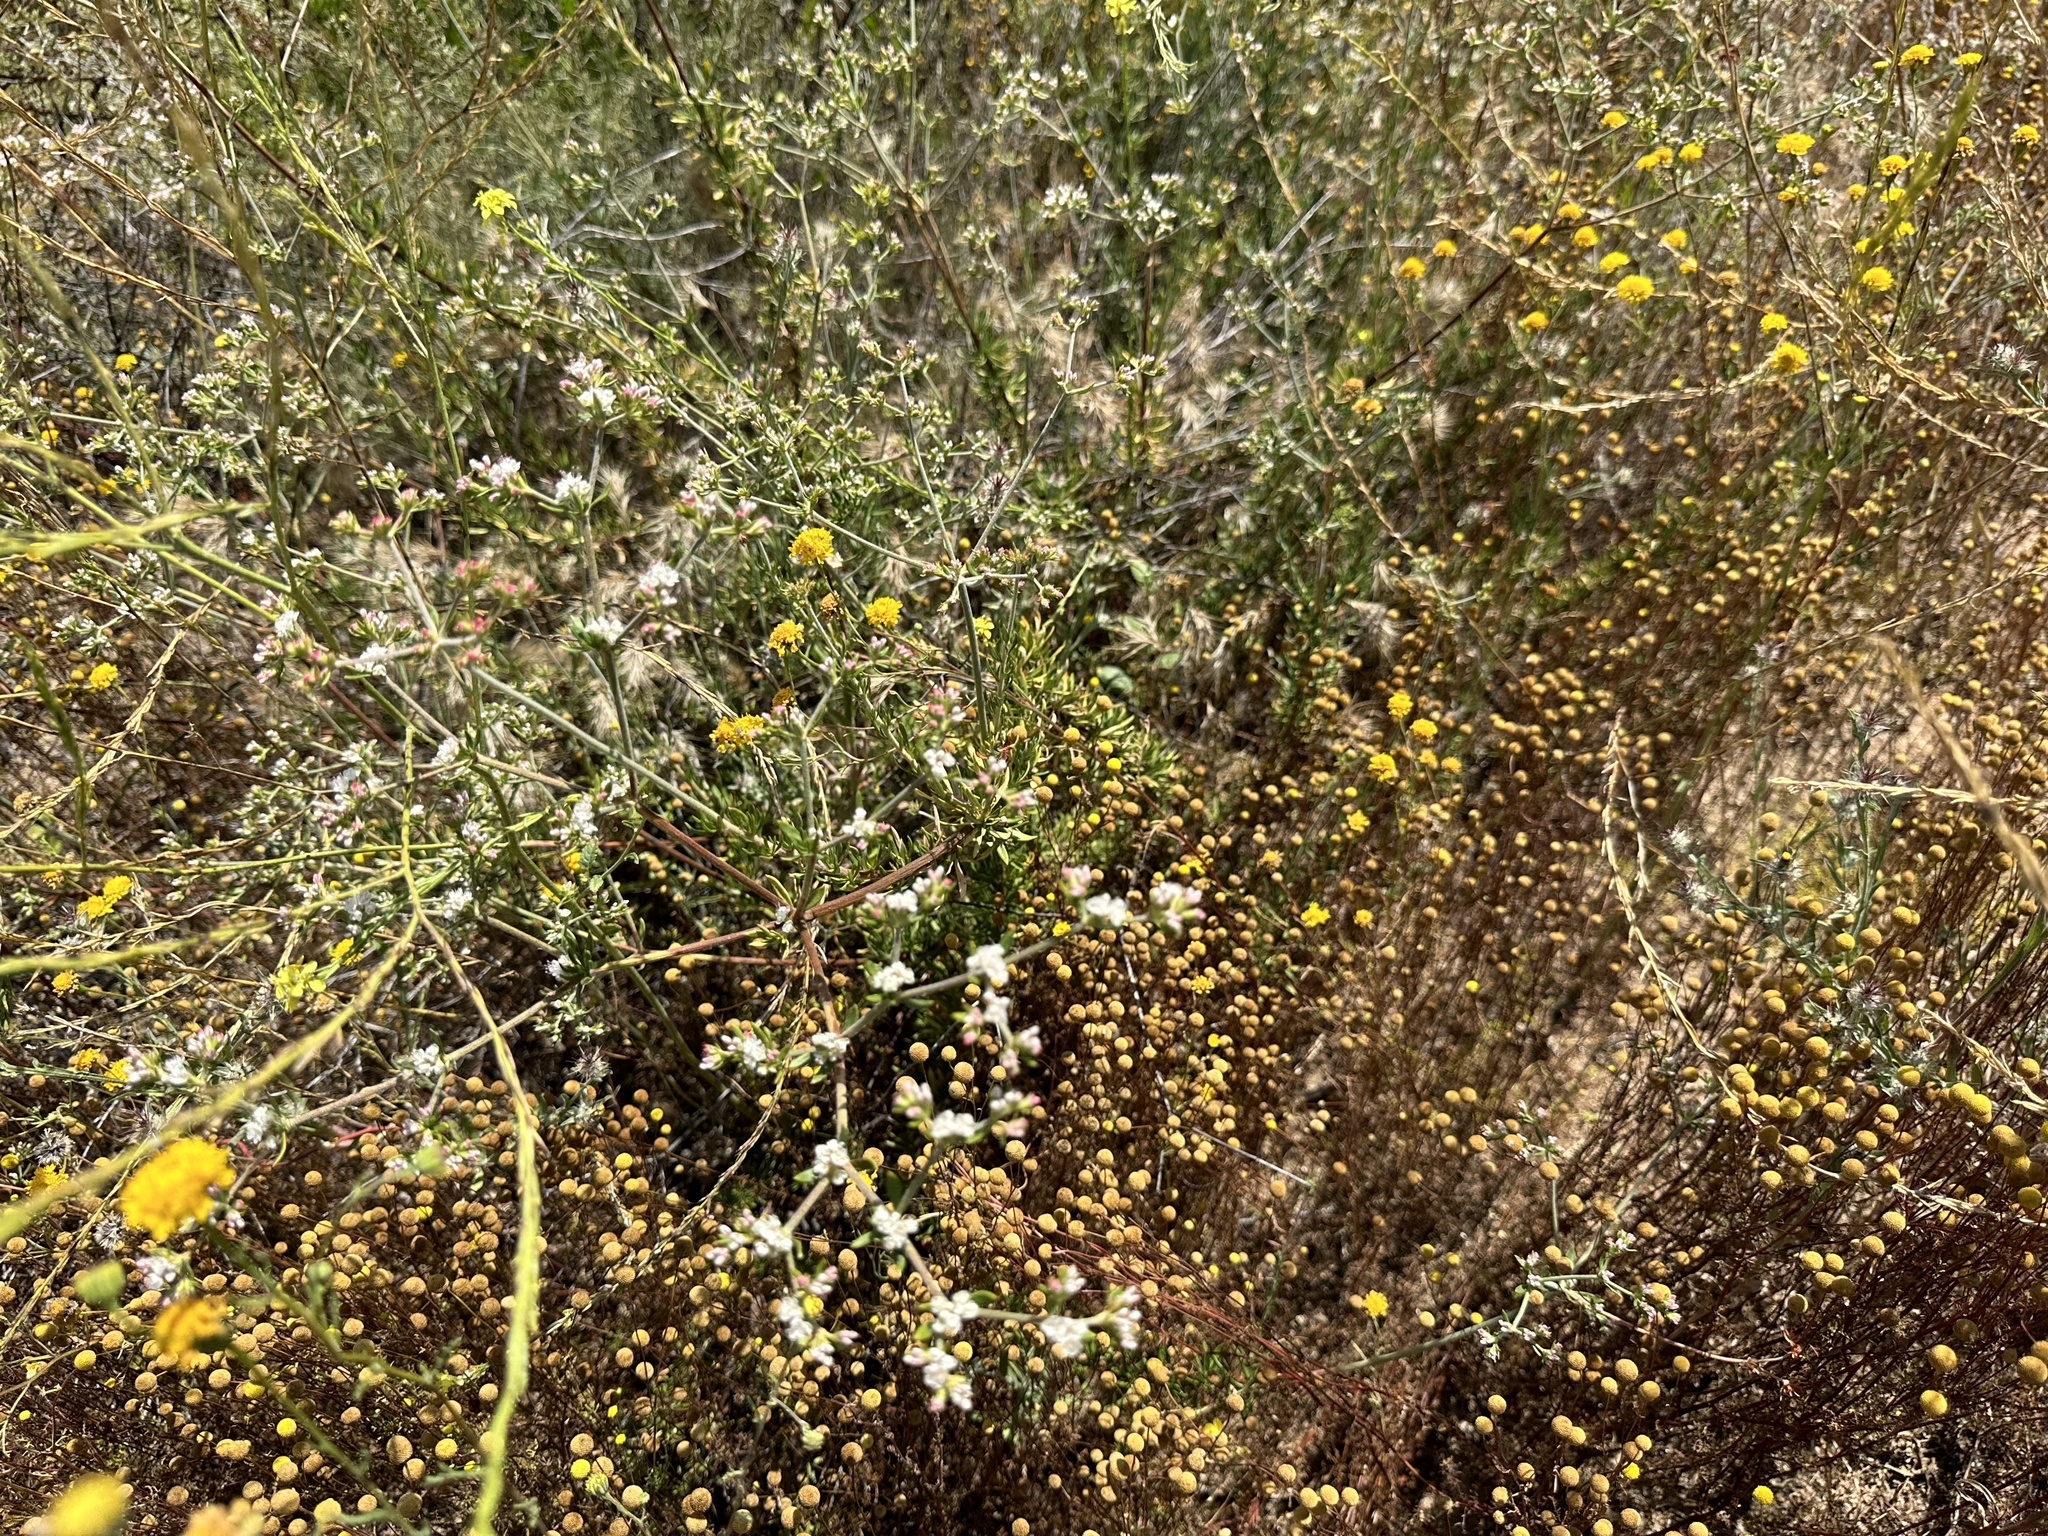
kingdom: Plantae
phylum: Tracheophyta
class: Magnoliopsida
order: Caryophyllales
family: Polygonaceae
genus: Eriogonum
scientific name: Eriogonum fasciculatum
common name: California wild buckwheat
